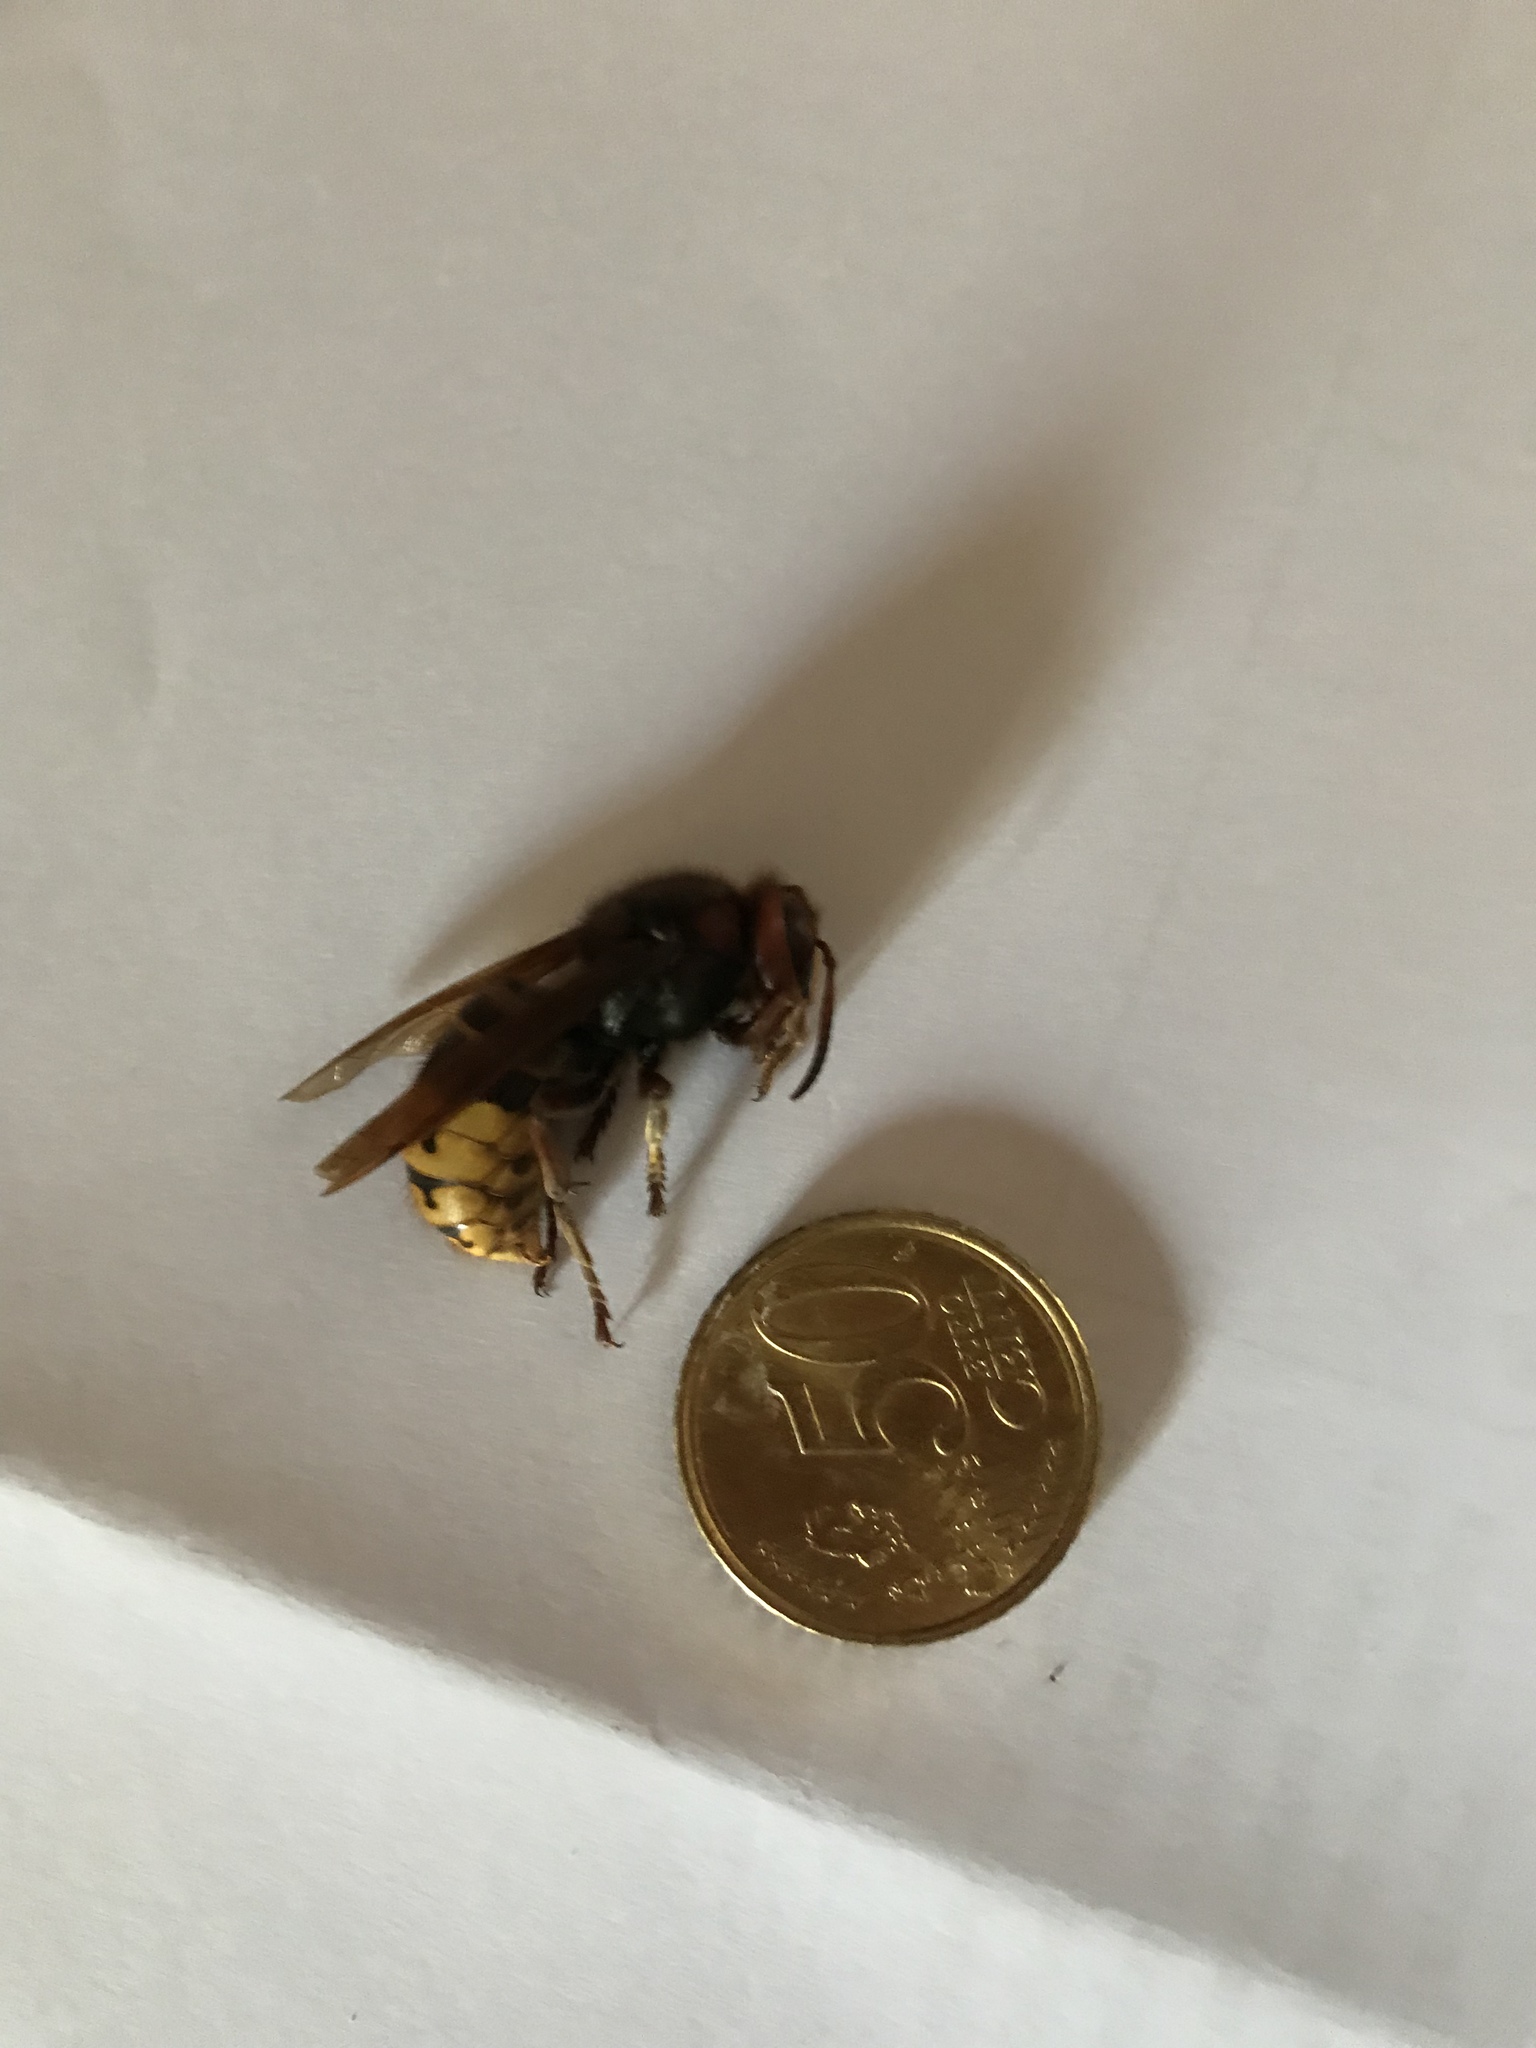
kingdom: Animalia
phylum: Arthropoda
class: Insecta
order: Hymenoptera
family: Vespidae
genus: Vespa
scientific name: Vespa crabro
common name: Hornet
